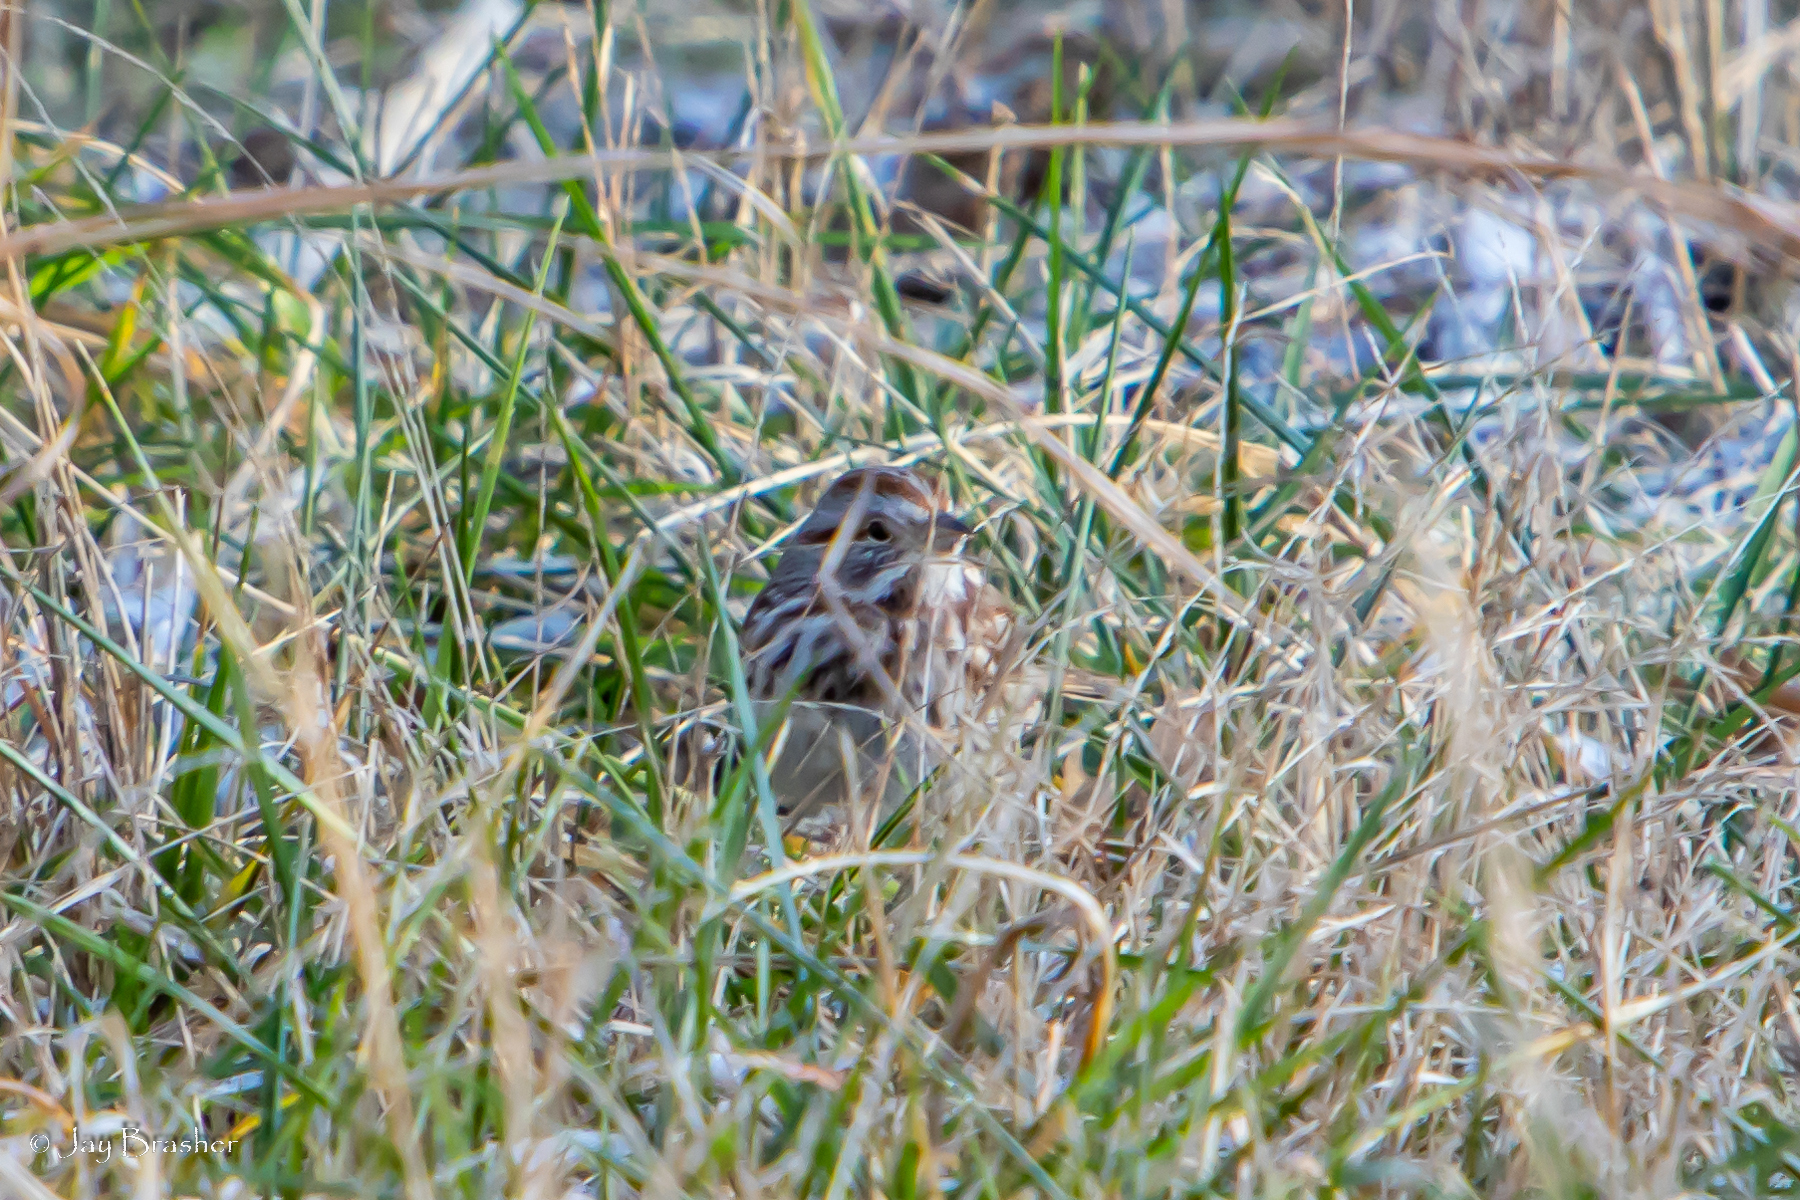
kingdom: Animalia
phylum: Chordata
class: Aves
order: Passeriformes
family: Passerellidae
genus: Melospiza
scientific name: Melospiza melodia
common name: Song sparrow
